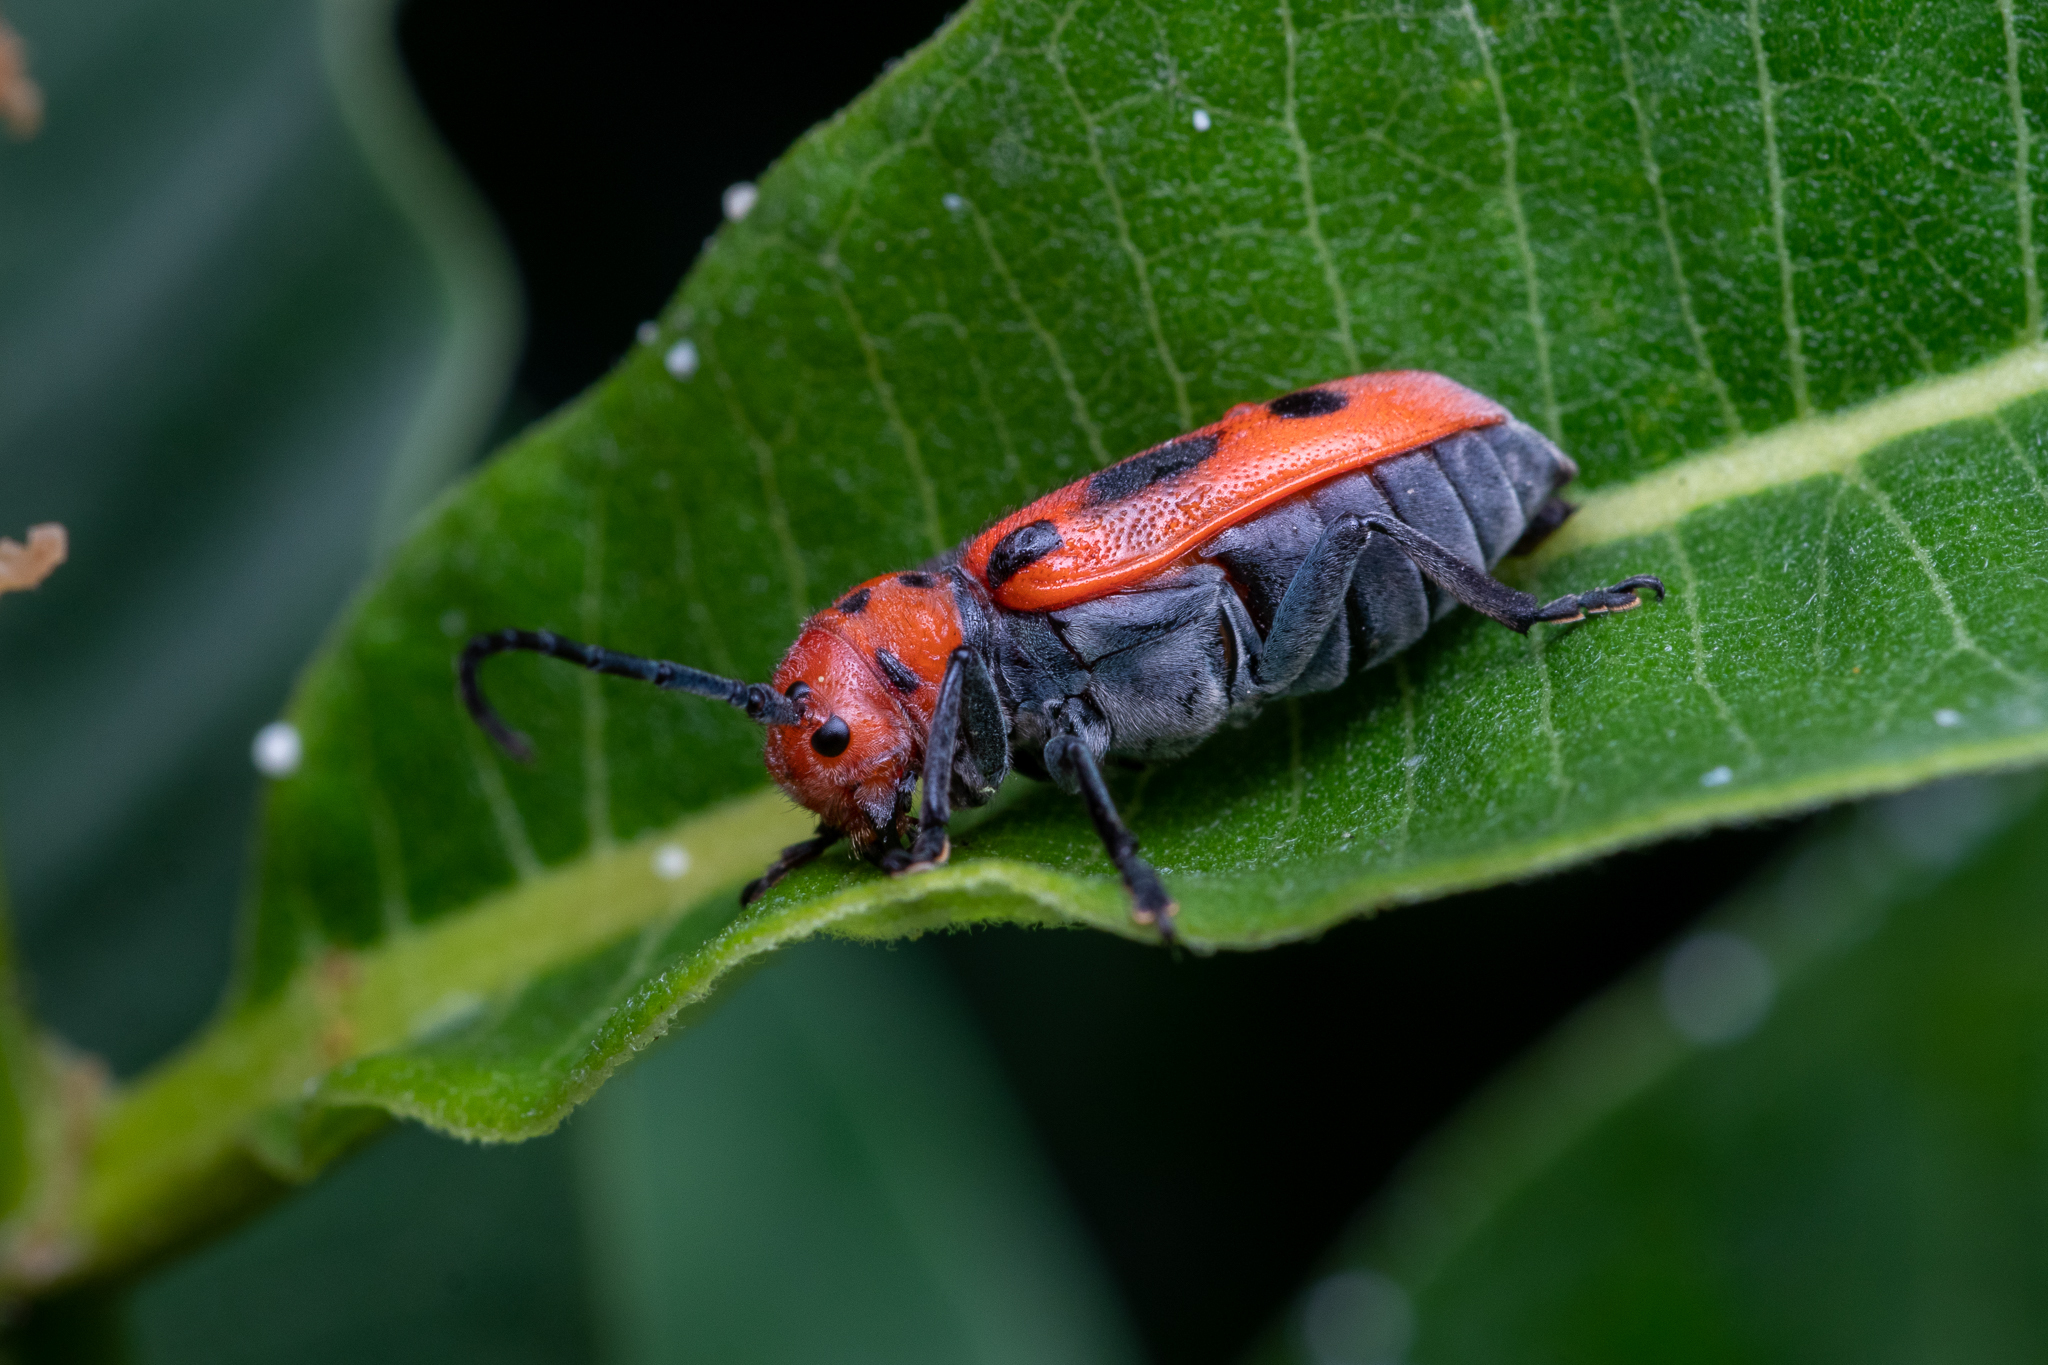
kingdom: Animalia
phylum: Arthropoda
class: Insecta
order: Coleoptera
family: Cerambycidae
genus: Tetraopes
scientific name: Tetraopes tetrophthalmus
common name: Red milkweed beetle
